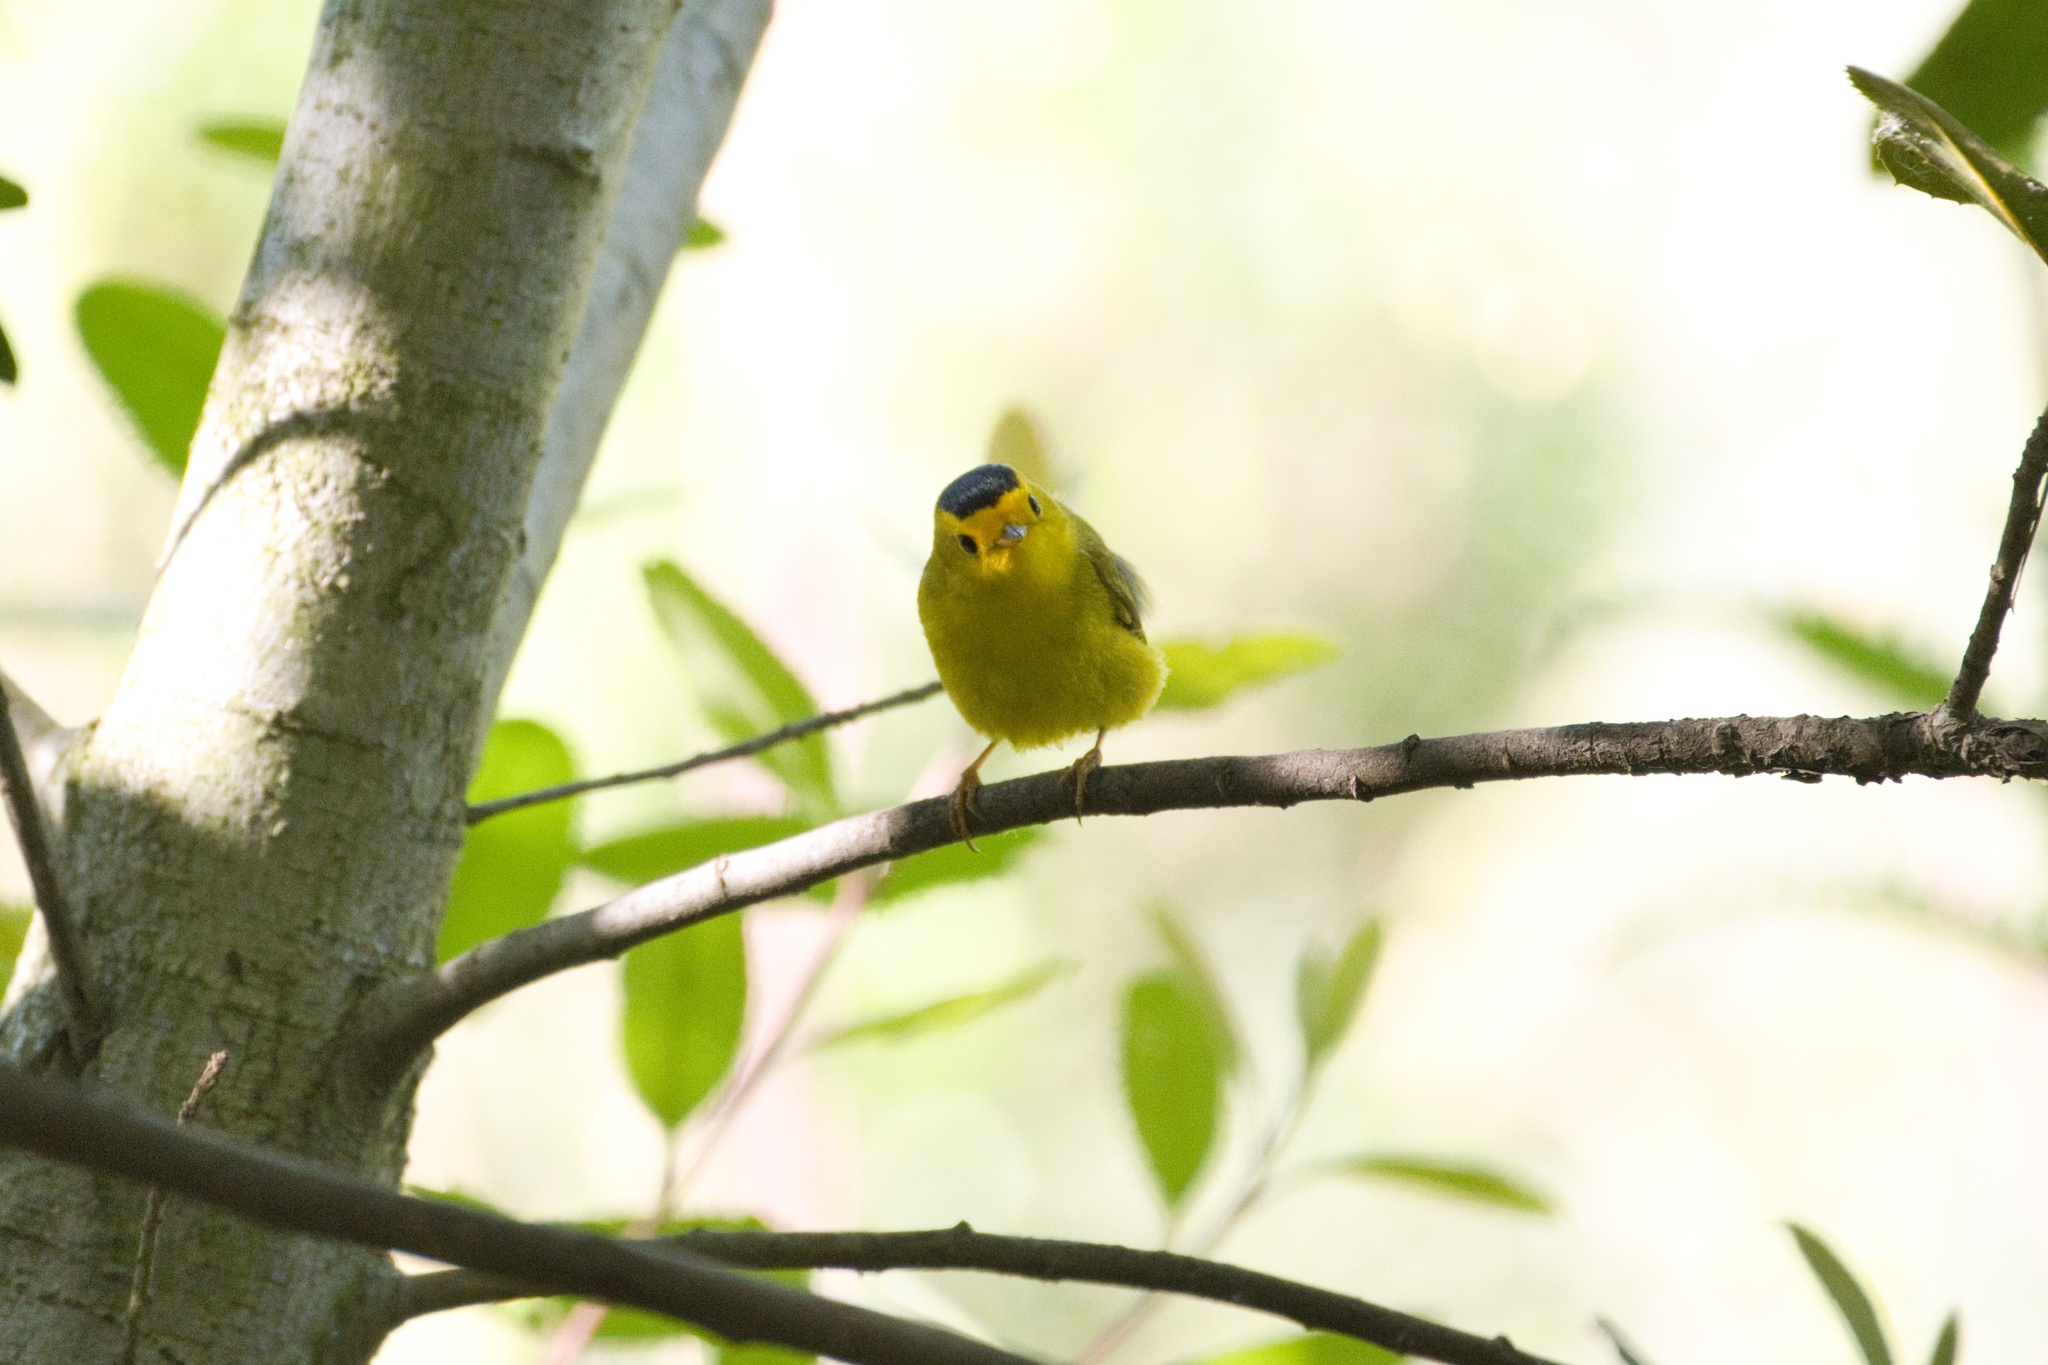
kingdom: Animalia
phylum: Chordata
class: Aves
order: Passeriformes
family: Parulidae
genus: Cardellina
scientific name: Cardellina pusilla
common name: Wilson's warbler
